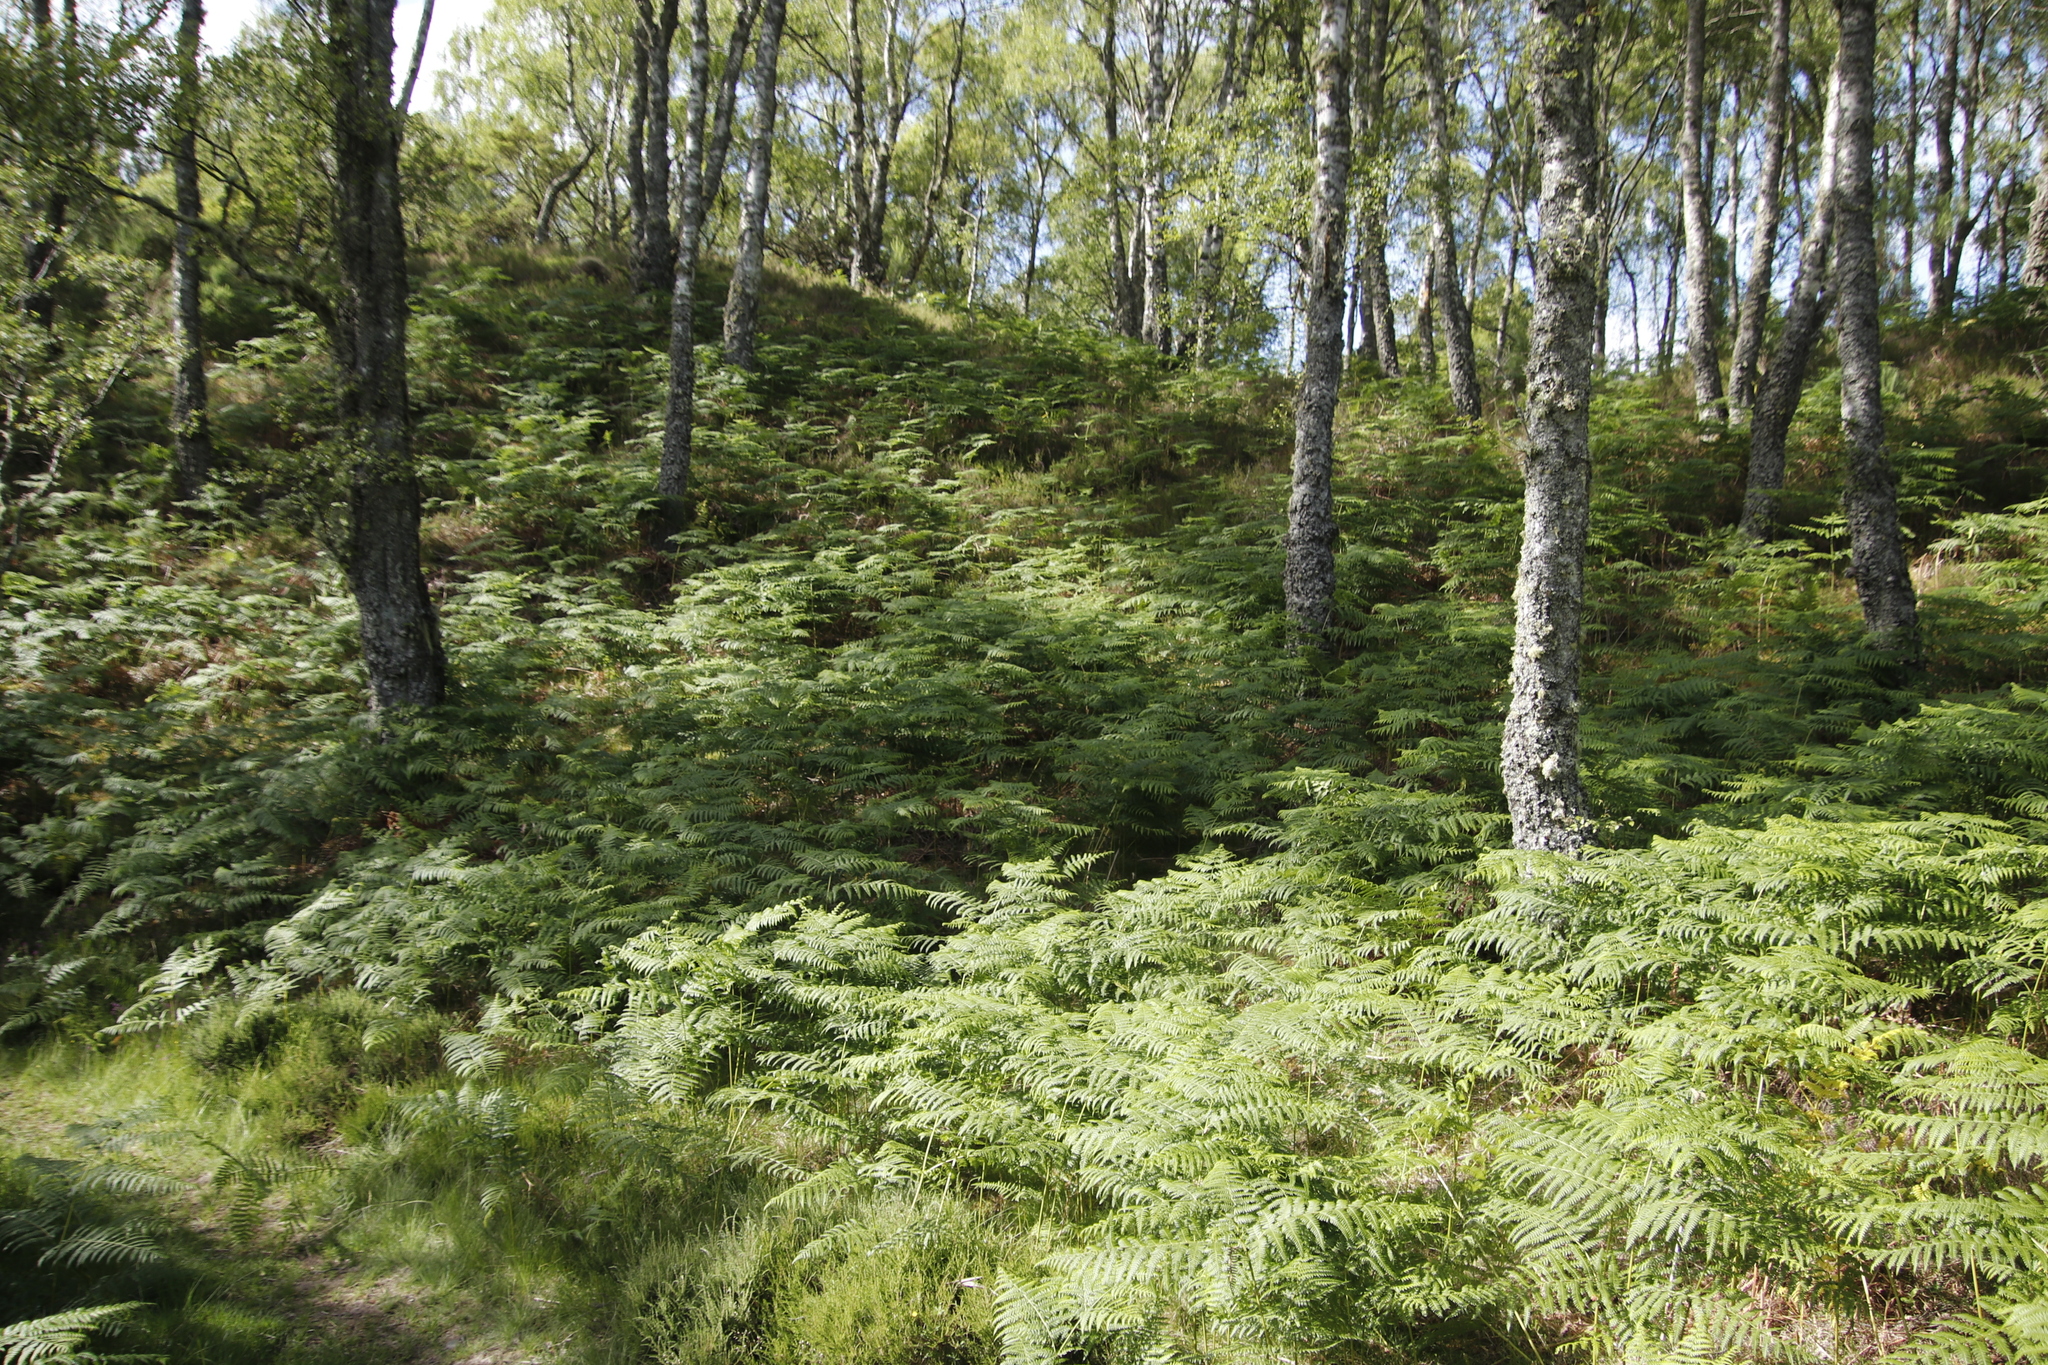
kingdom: Plantae
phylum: Tracheophyta
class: Polypodiopsida
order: Polypodiales
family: Dennstaedtiaceae
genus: Pteridium
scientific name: Pteridium aquilinum
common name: Bracken
